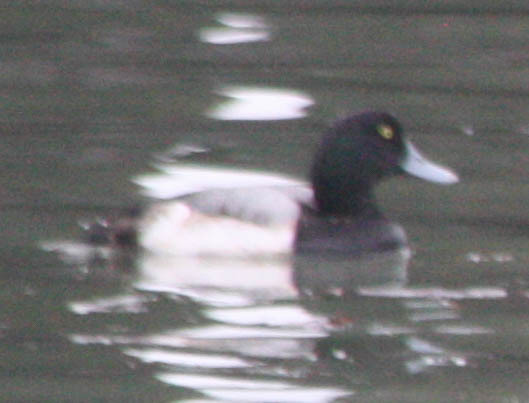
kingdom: Animalia
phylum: Chordata
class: Aves
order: Anseriformes
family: Anatidae
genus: Aythya
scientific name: Aythya marila
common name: Greater scaup
